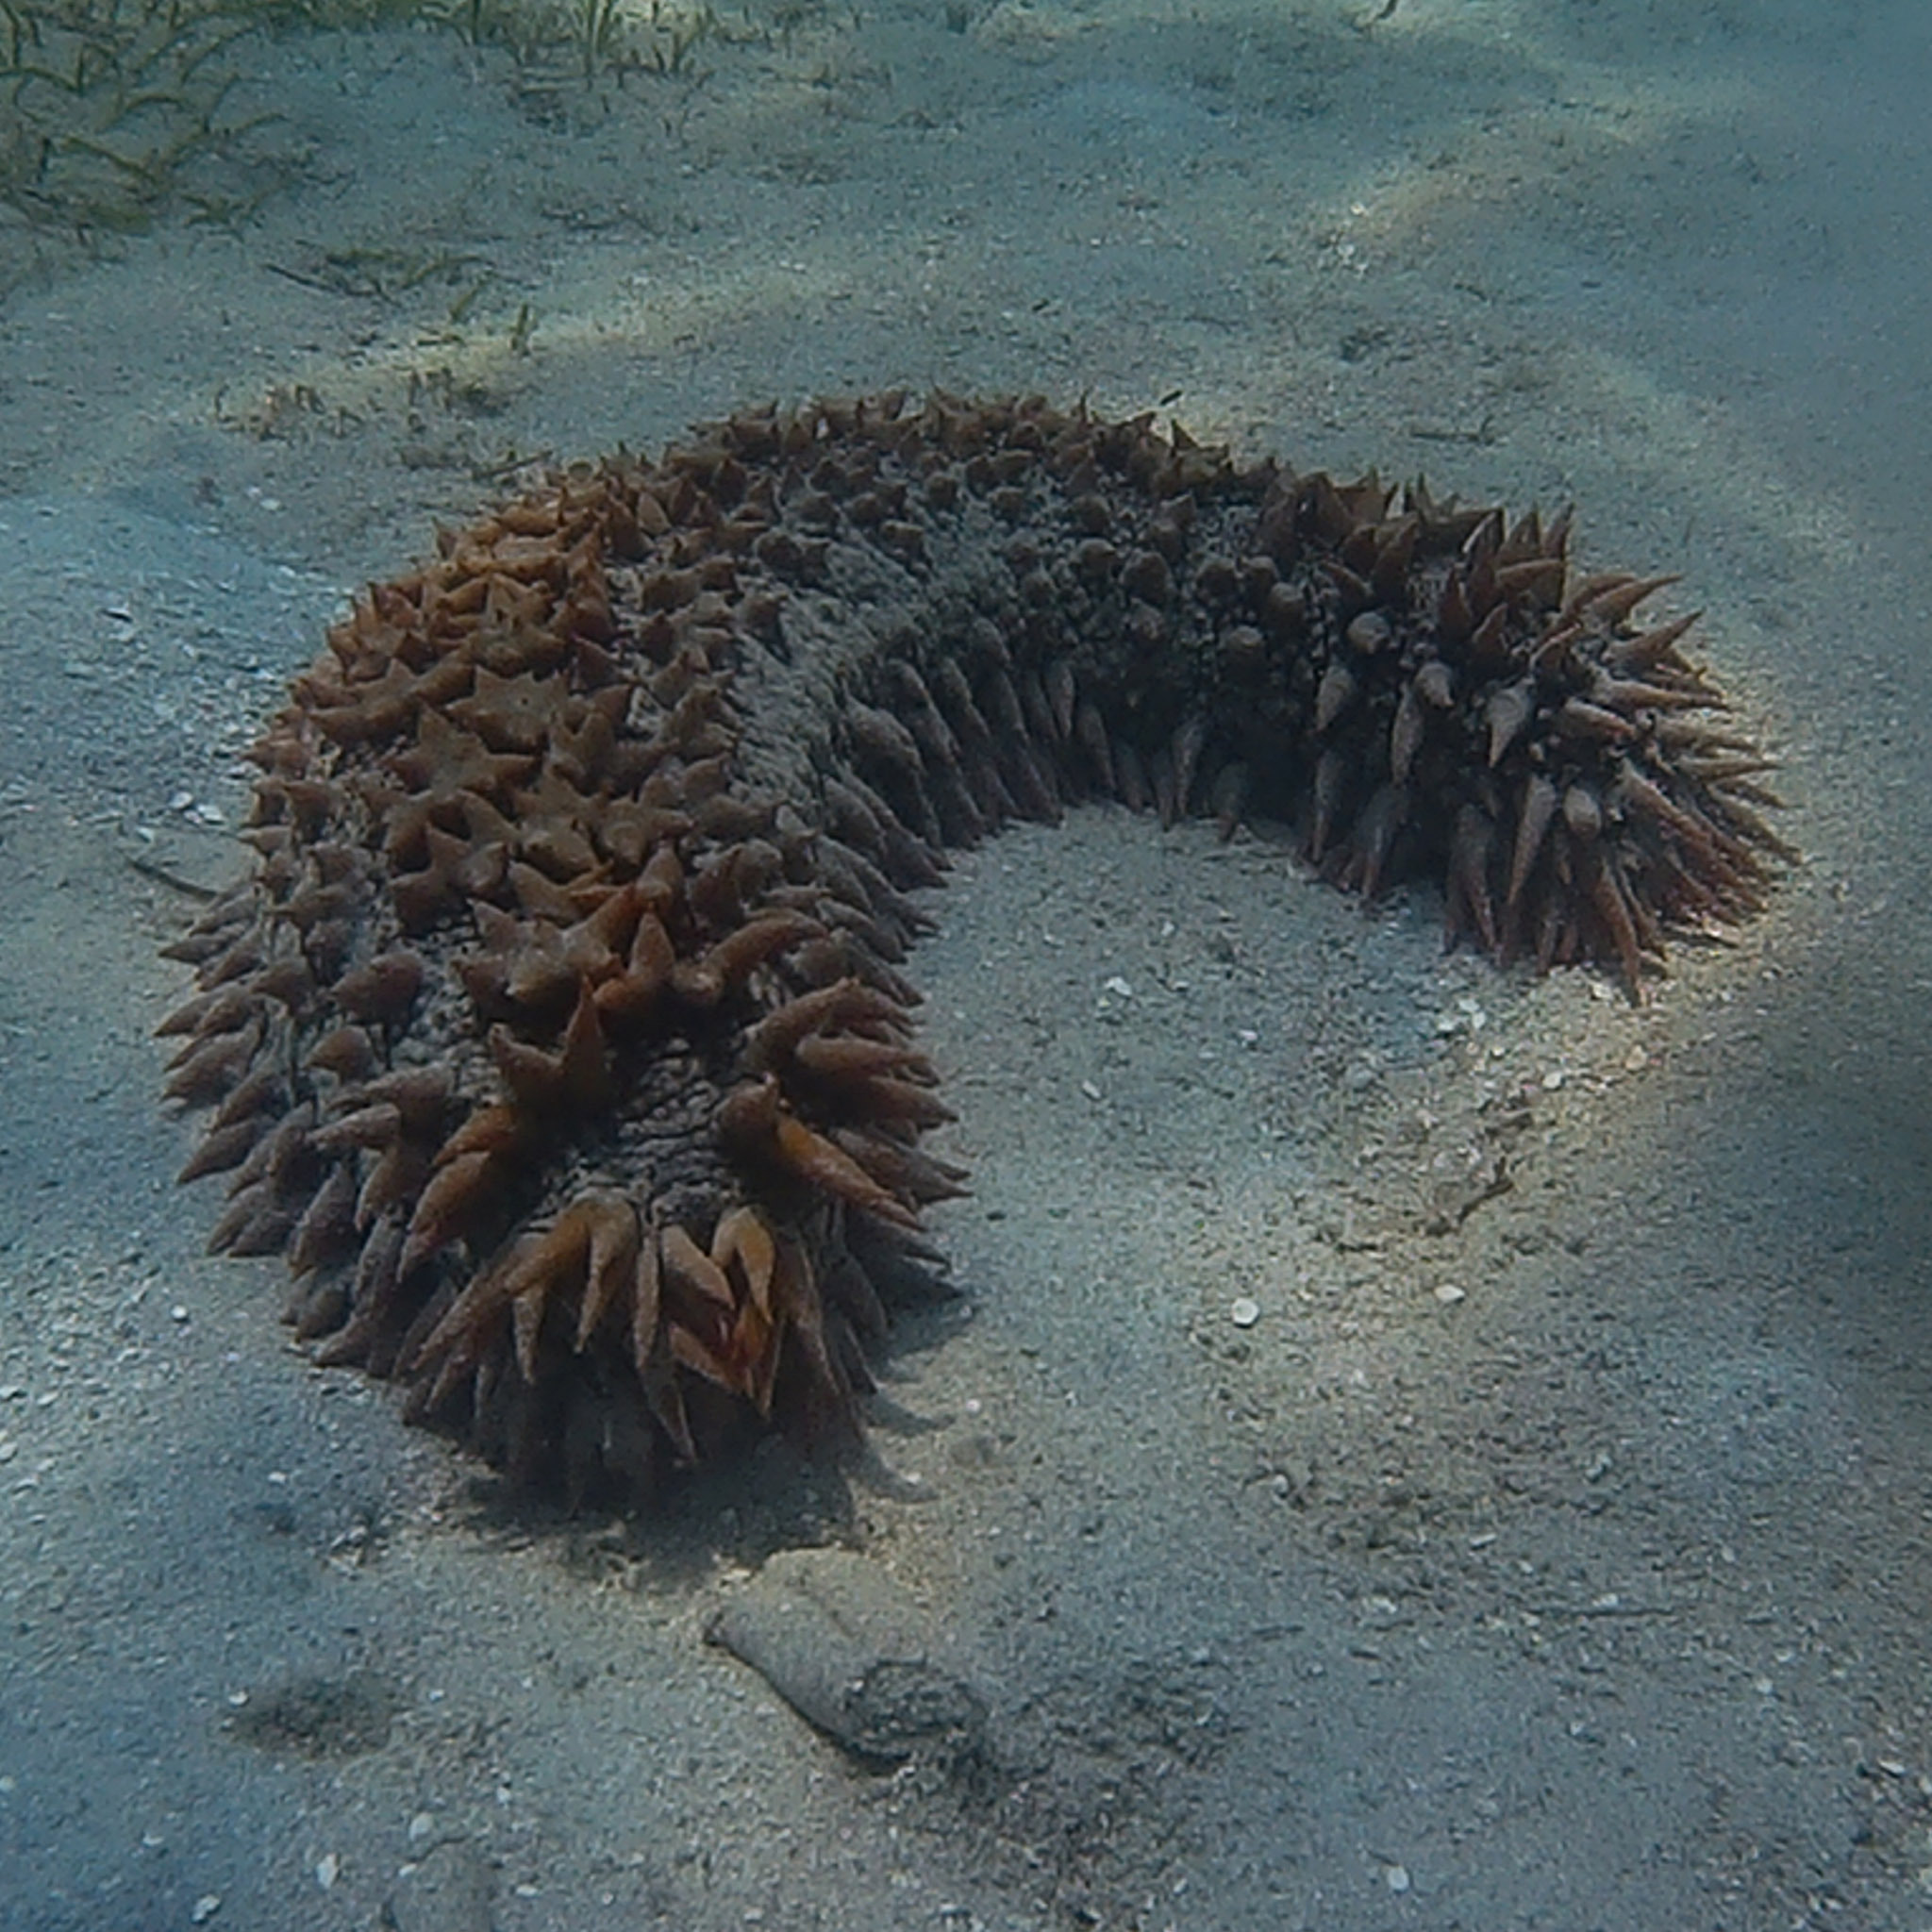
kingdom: Animalia
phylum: Echinodermata
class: Holothuroidea
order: Synallactida
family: Stichopodidae
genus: Thelenota
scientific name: Thelenota ananas
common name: Prickly redfish
